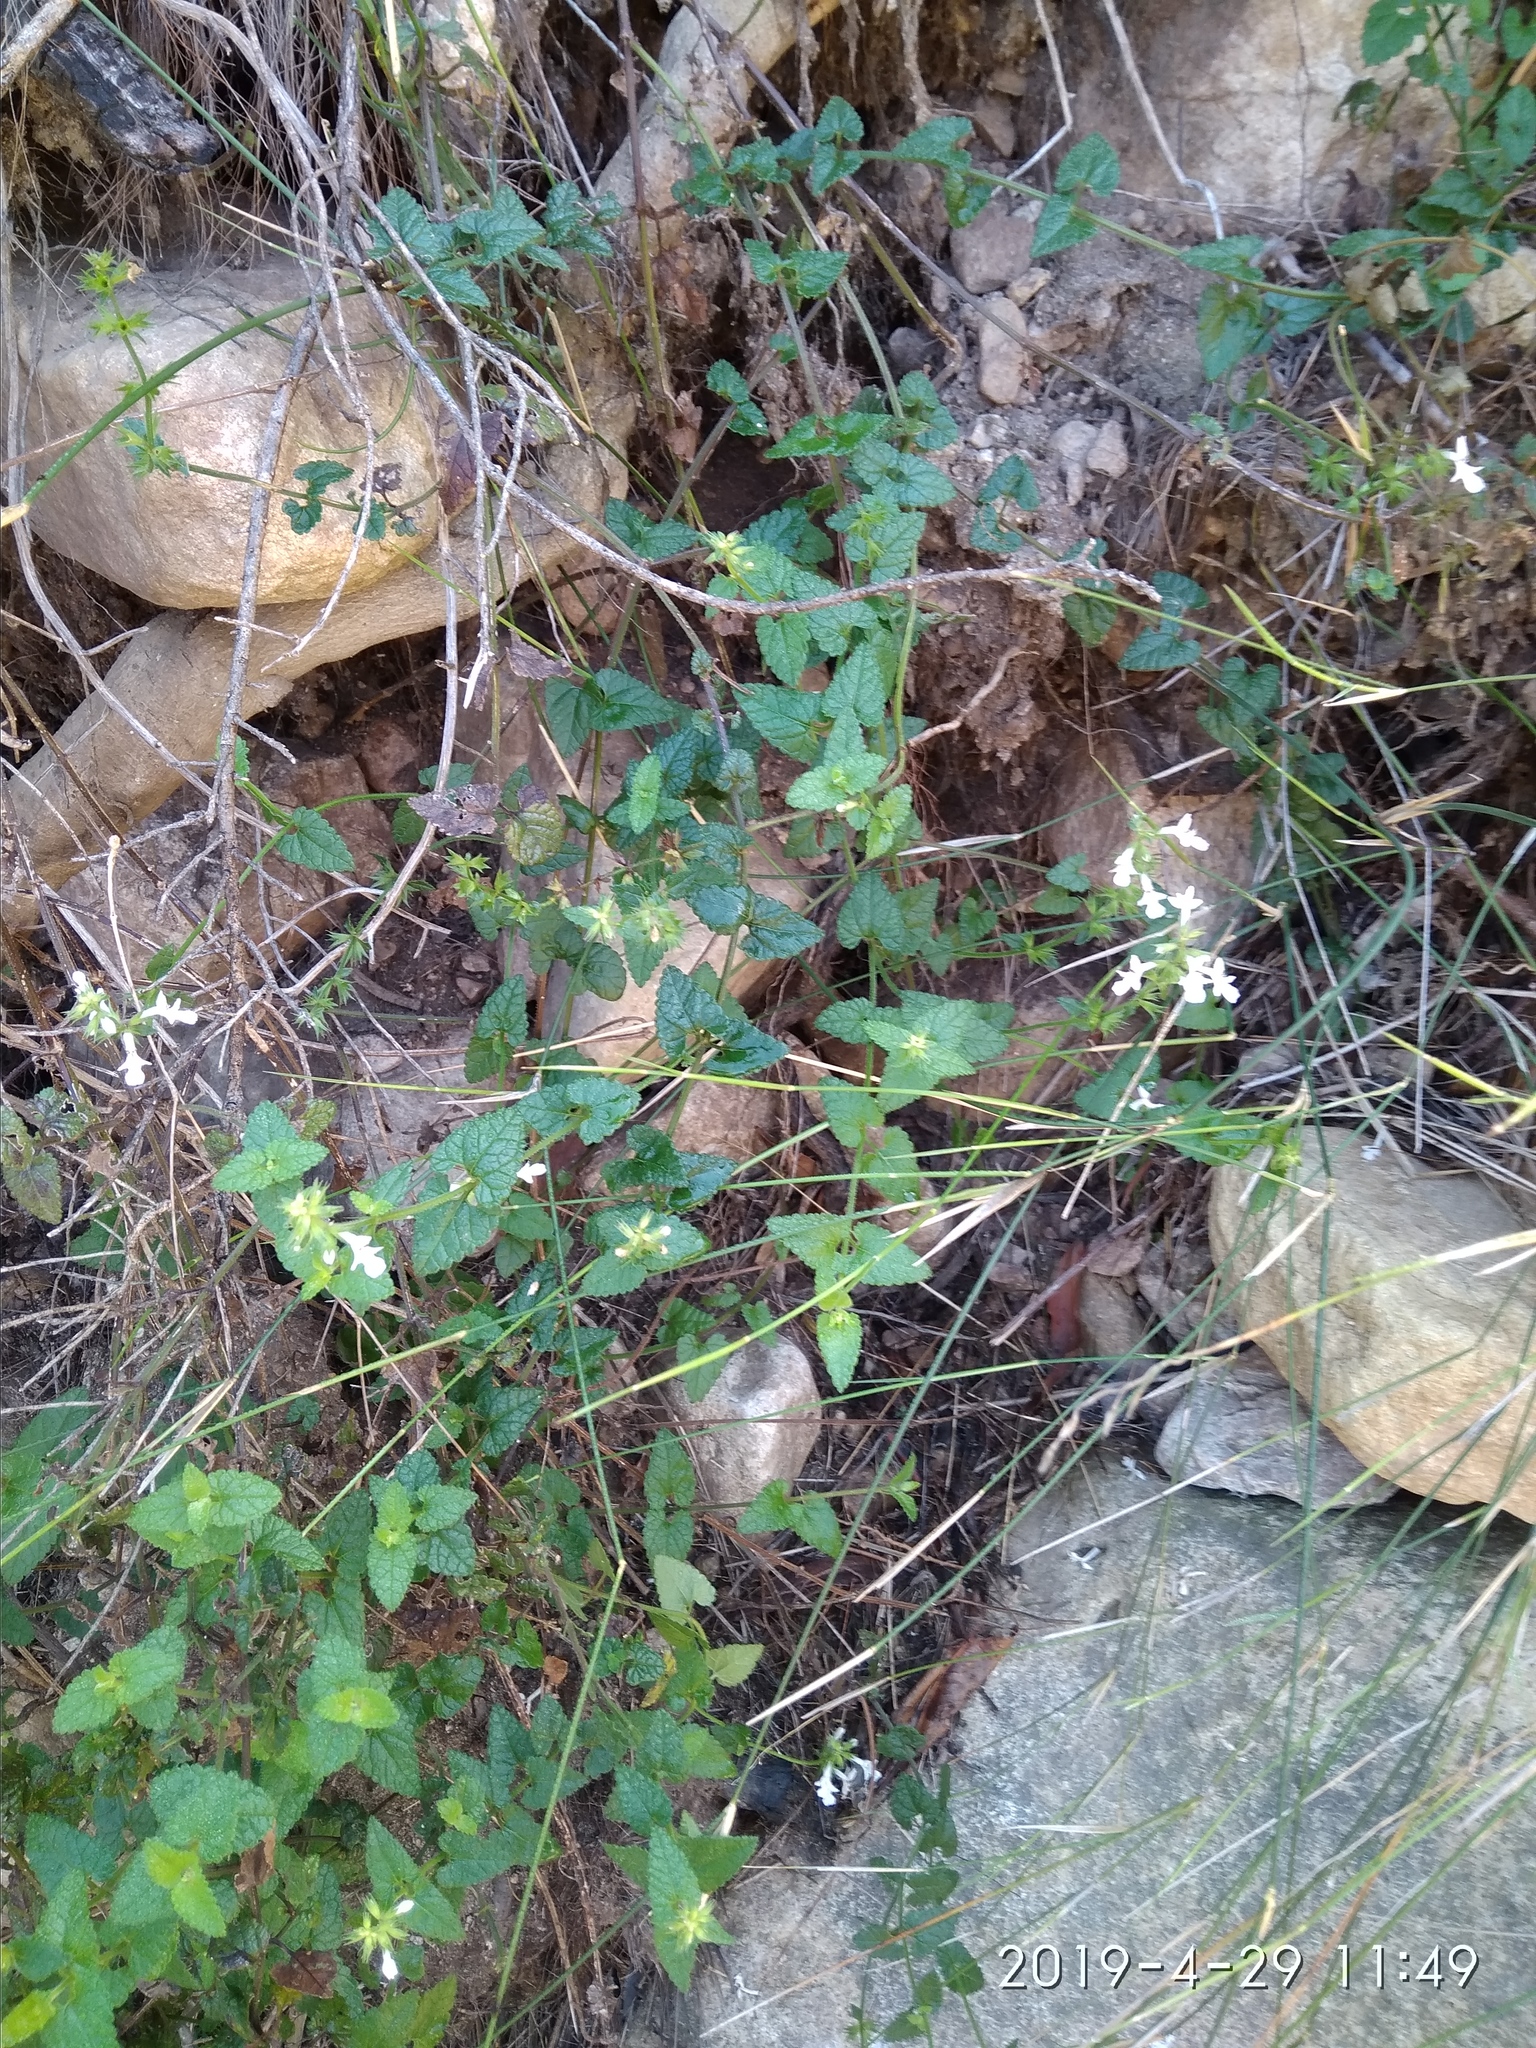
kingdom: Plantae
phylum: Tracheophyta
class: Magnoliopsida
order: Lamiales
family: Lamiaceae
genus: Stachys
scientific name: Stachys aethiopica
